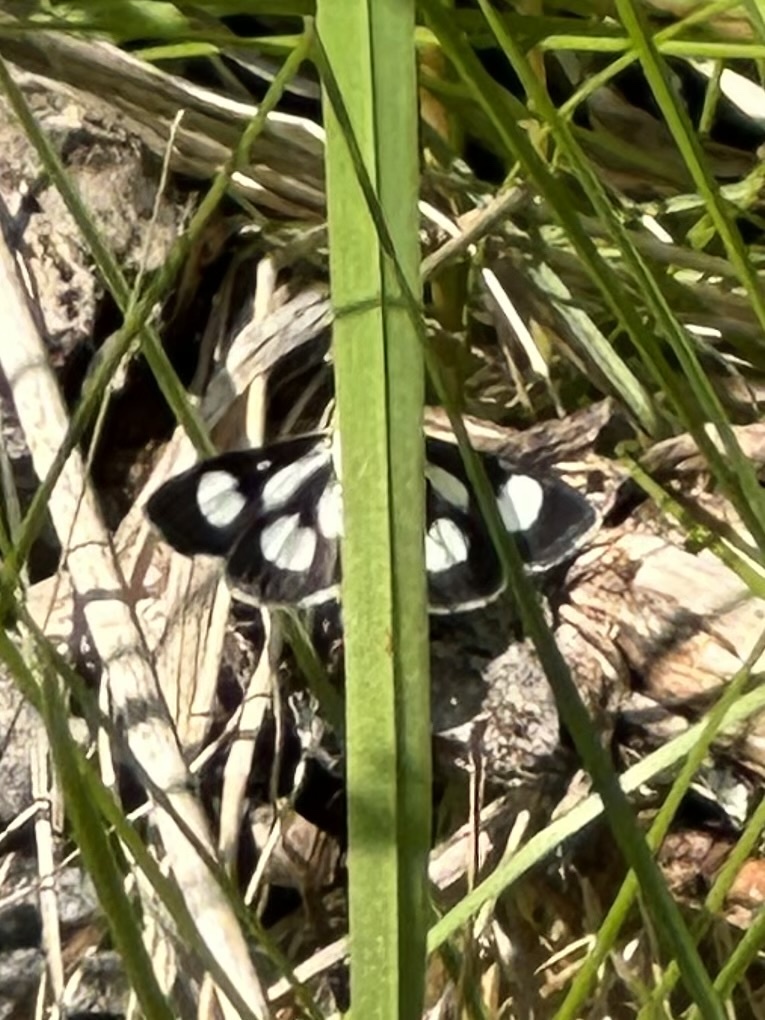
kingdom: Animalia
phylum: Arthropoda
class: Insecta
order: Lepidoptera
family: Crambidae
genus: Anania
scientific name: Anania funebris
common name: White-spotted sable moth
